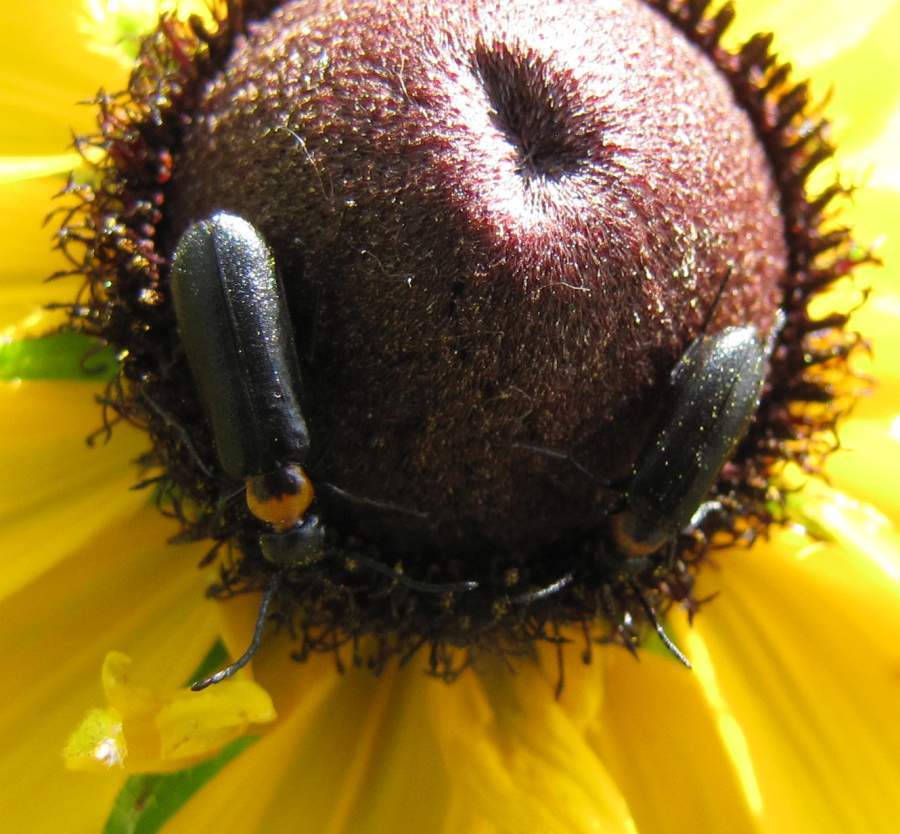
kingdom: Animalia
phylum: Arthropoda
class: Insecta
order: Coleoptera
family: Meloidae
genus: Nemognatha
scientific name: Nemognatha nemorensis
